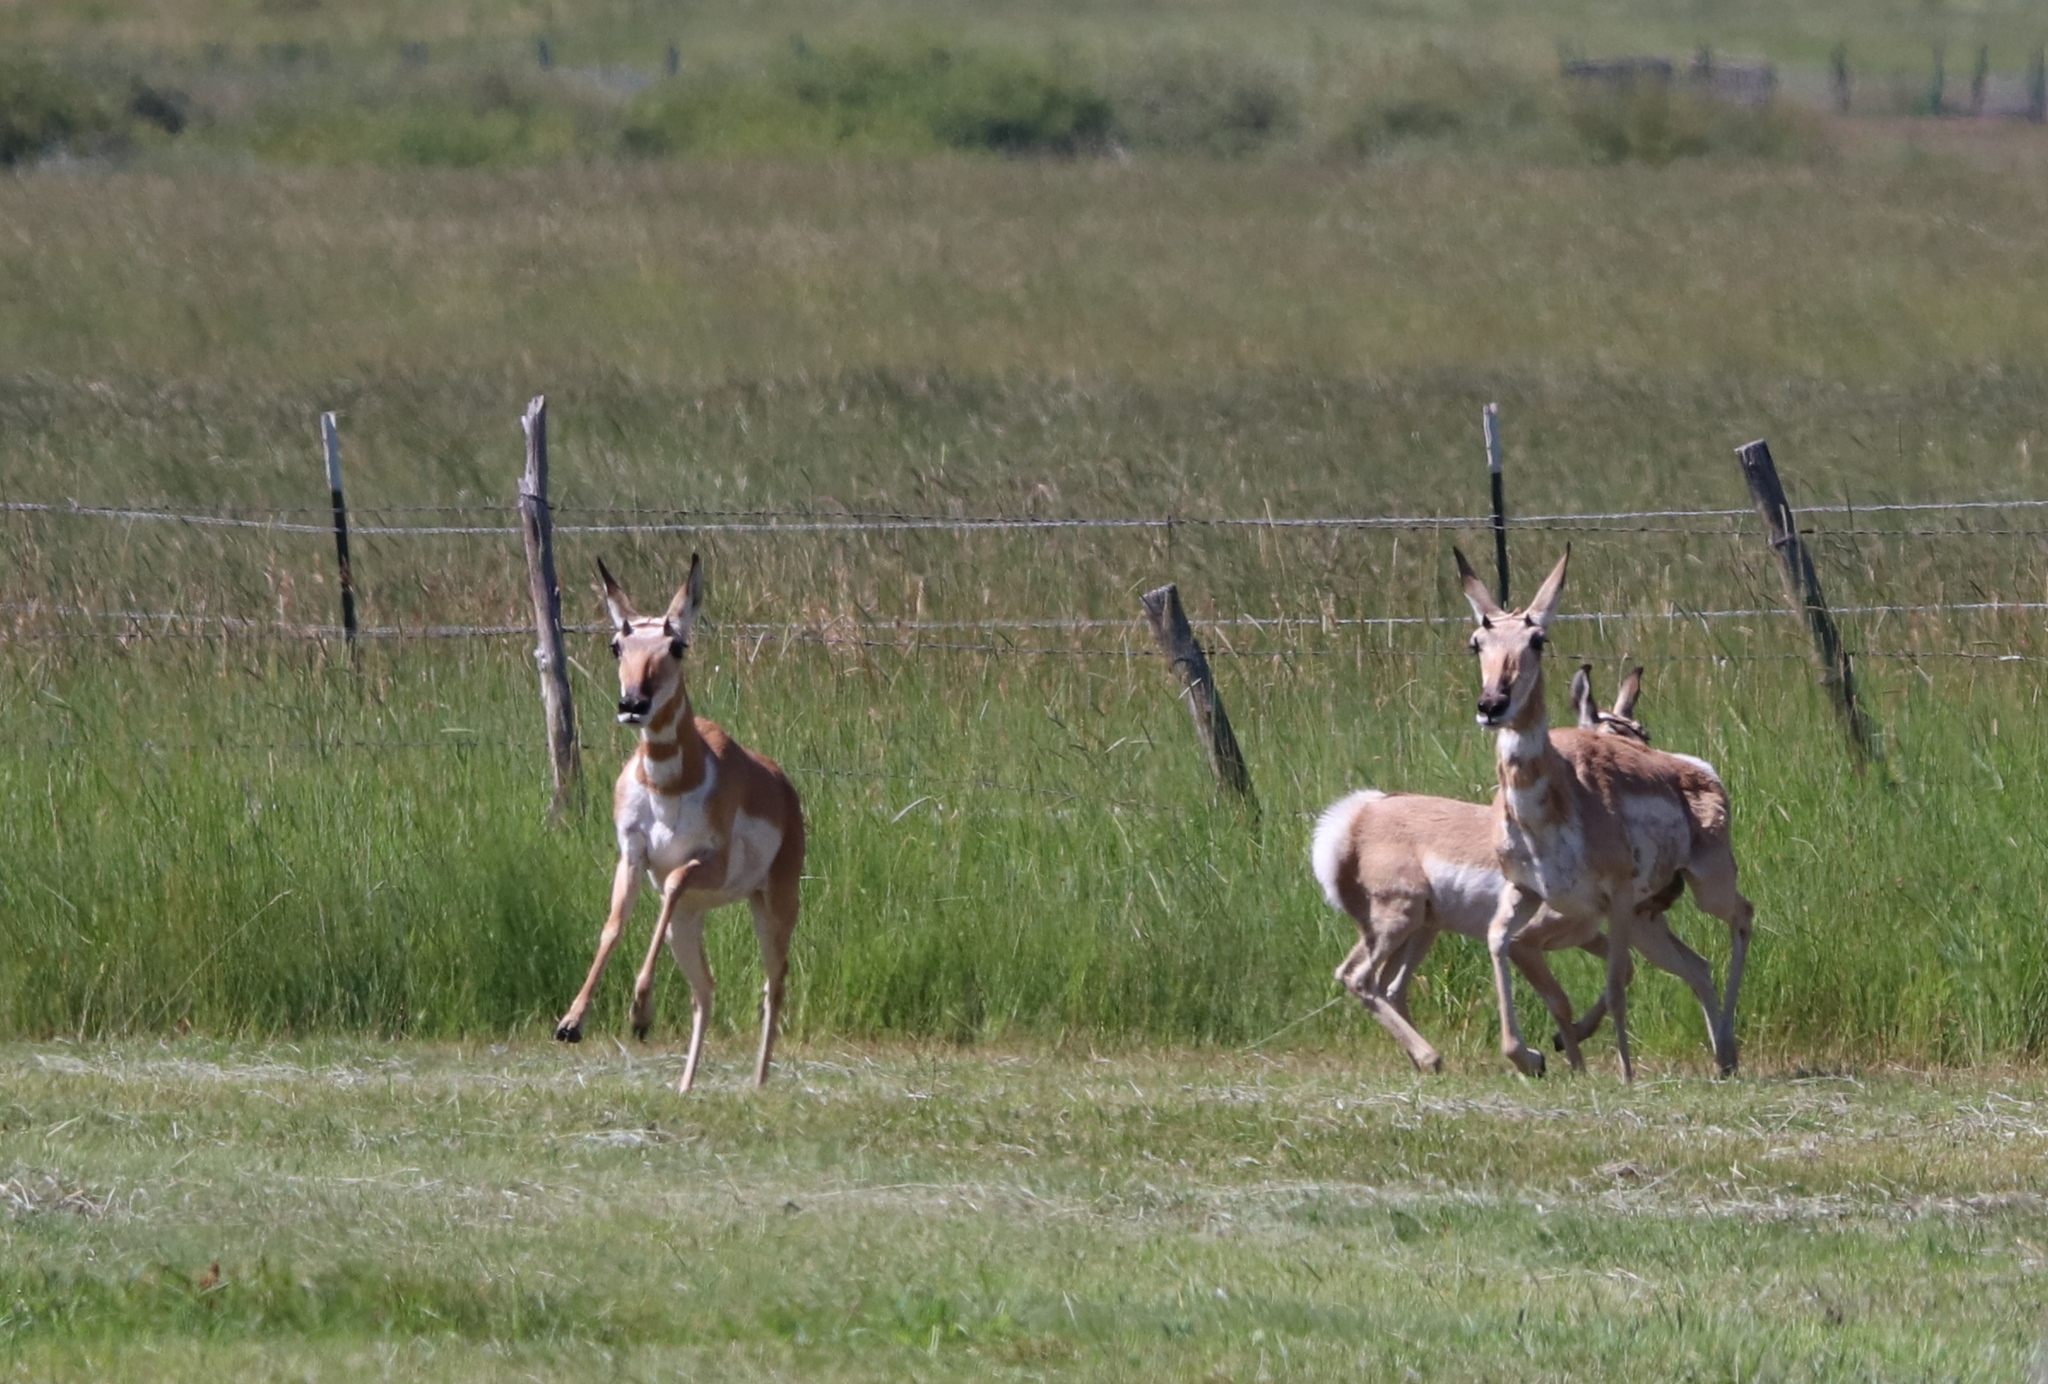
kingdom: Animalia
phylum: Chordata
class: Mammalia
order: Artiodactyla
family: Antilocapridae
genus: Antilocapra
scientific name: Antilocapra americana
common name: Pronghorn
